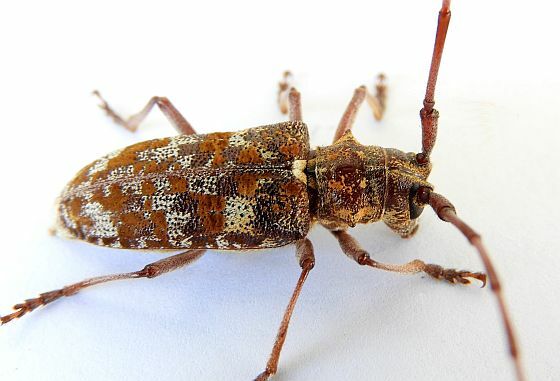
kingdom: Animalia
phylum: Arthropoda
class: Insecta
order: Coleoptera
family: Cerambycidae
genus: Monochamus
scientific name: Monochamus clamator
